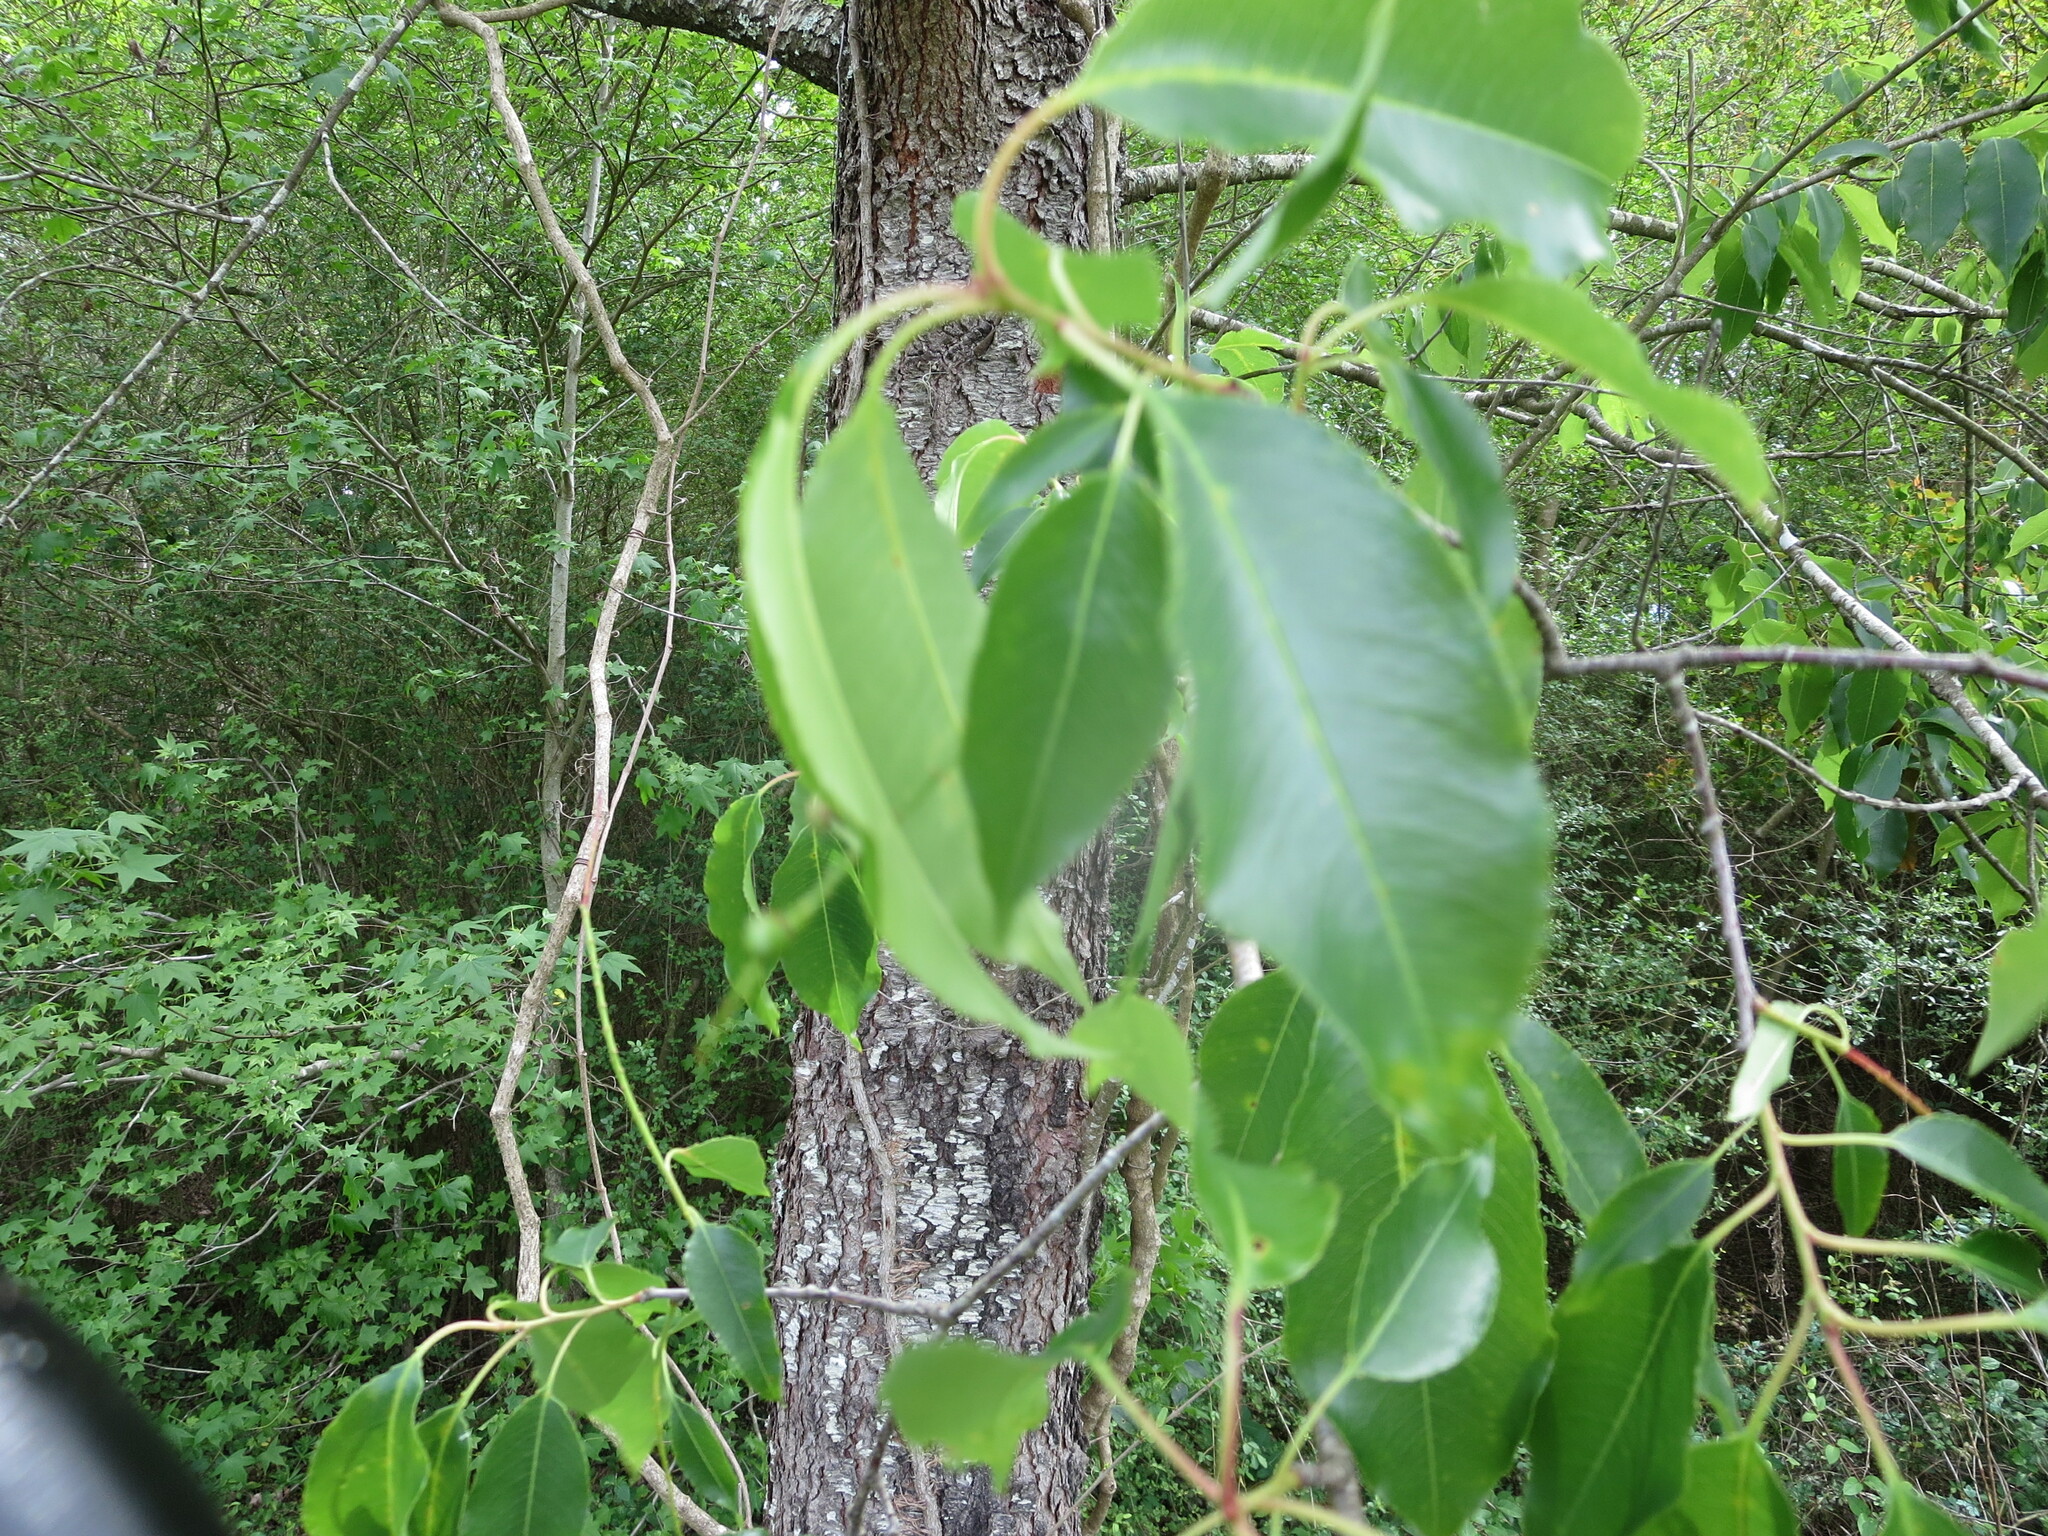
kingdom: Plantae
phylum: Tracheophyta
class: Magnoliopsida
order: Rosales
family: Rosaceae
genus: Prunus
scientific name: Prunus serotina
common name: Black cherry
